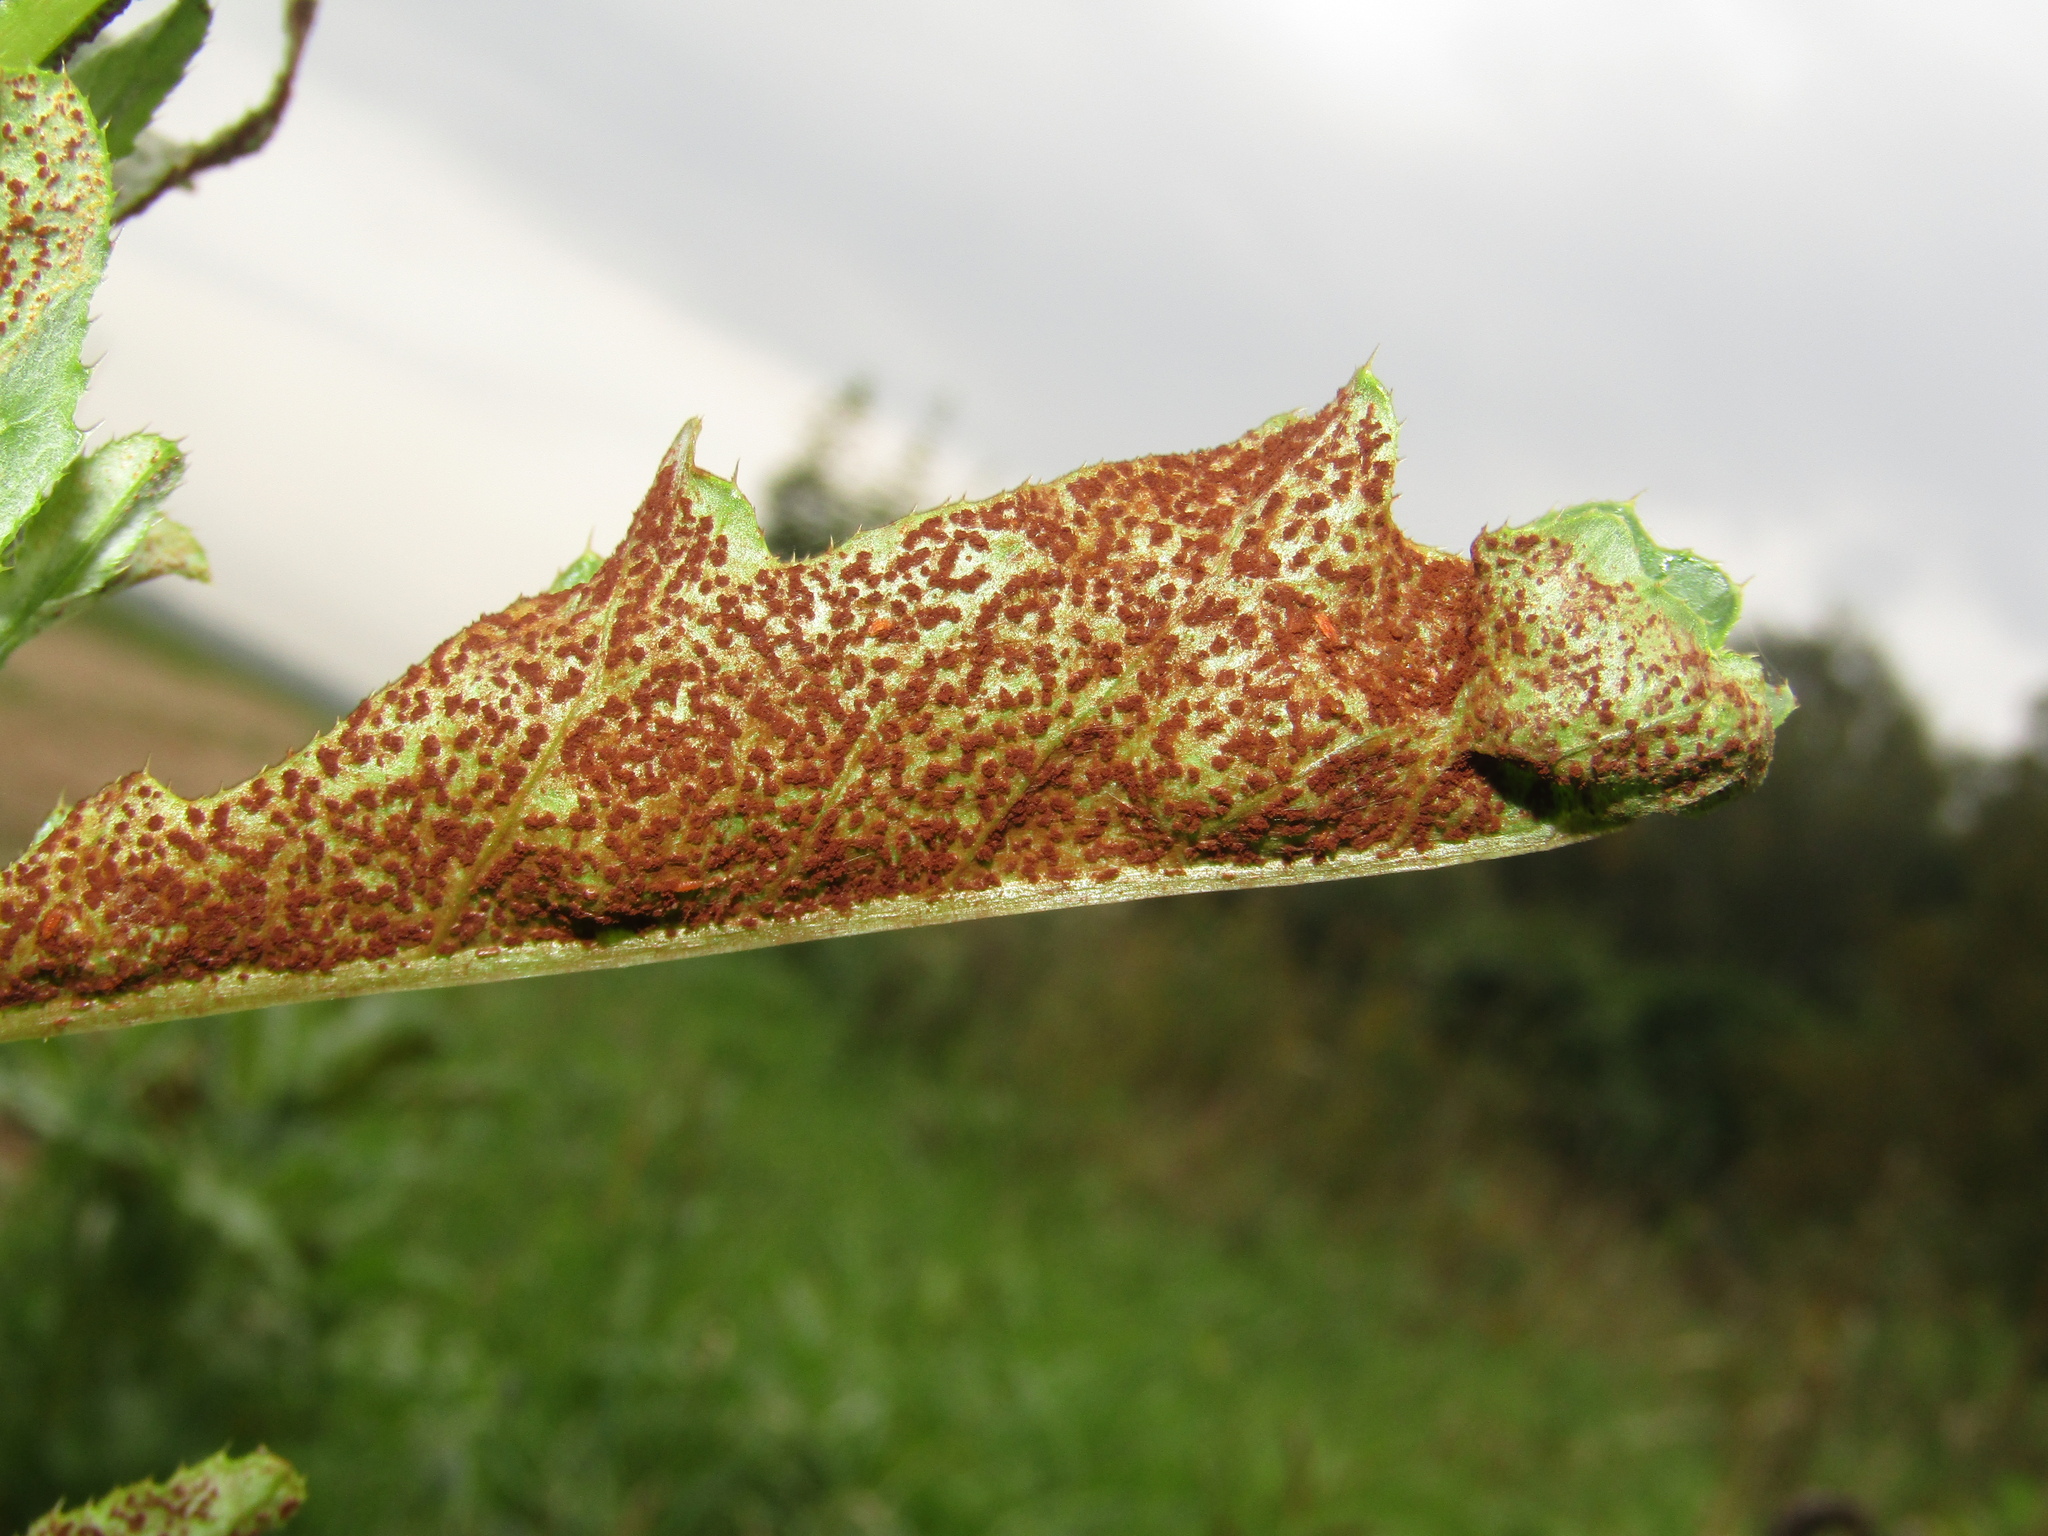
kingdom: Fungi
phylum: Basidiomycota
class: Pucciniomycetes
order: Pucciniales
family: Pucciniaceae
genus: Puccinia
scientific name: Puccinia suaveolens
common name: Thistle rust
